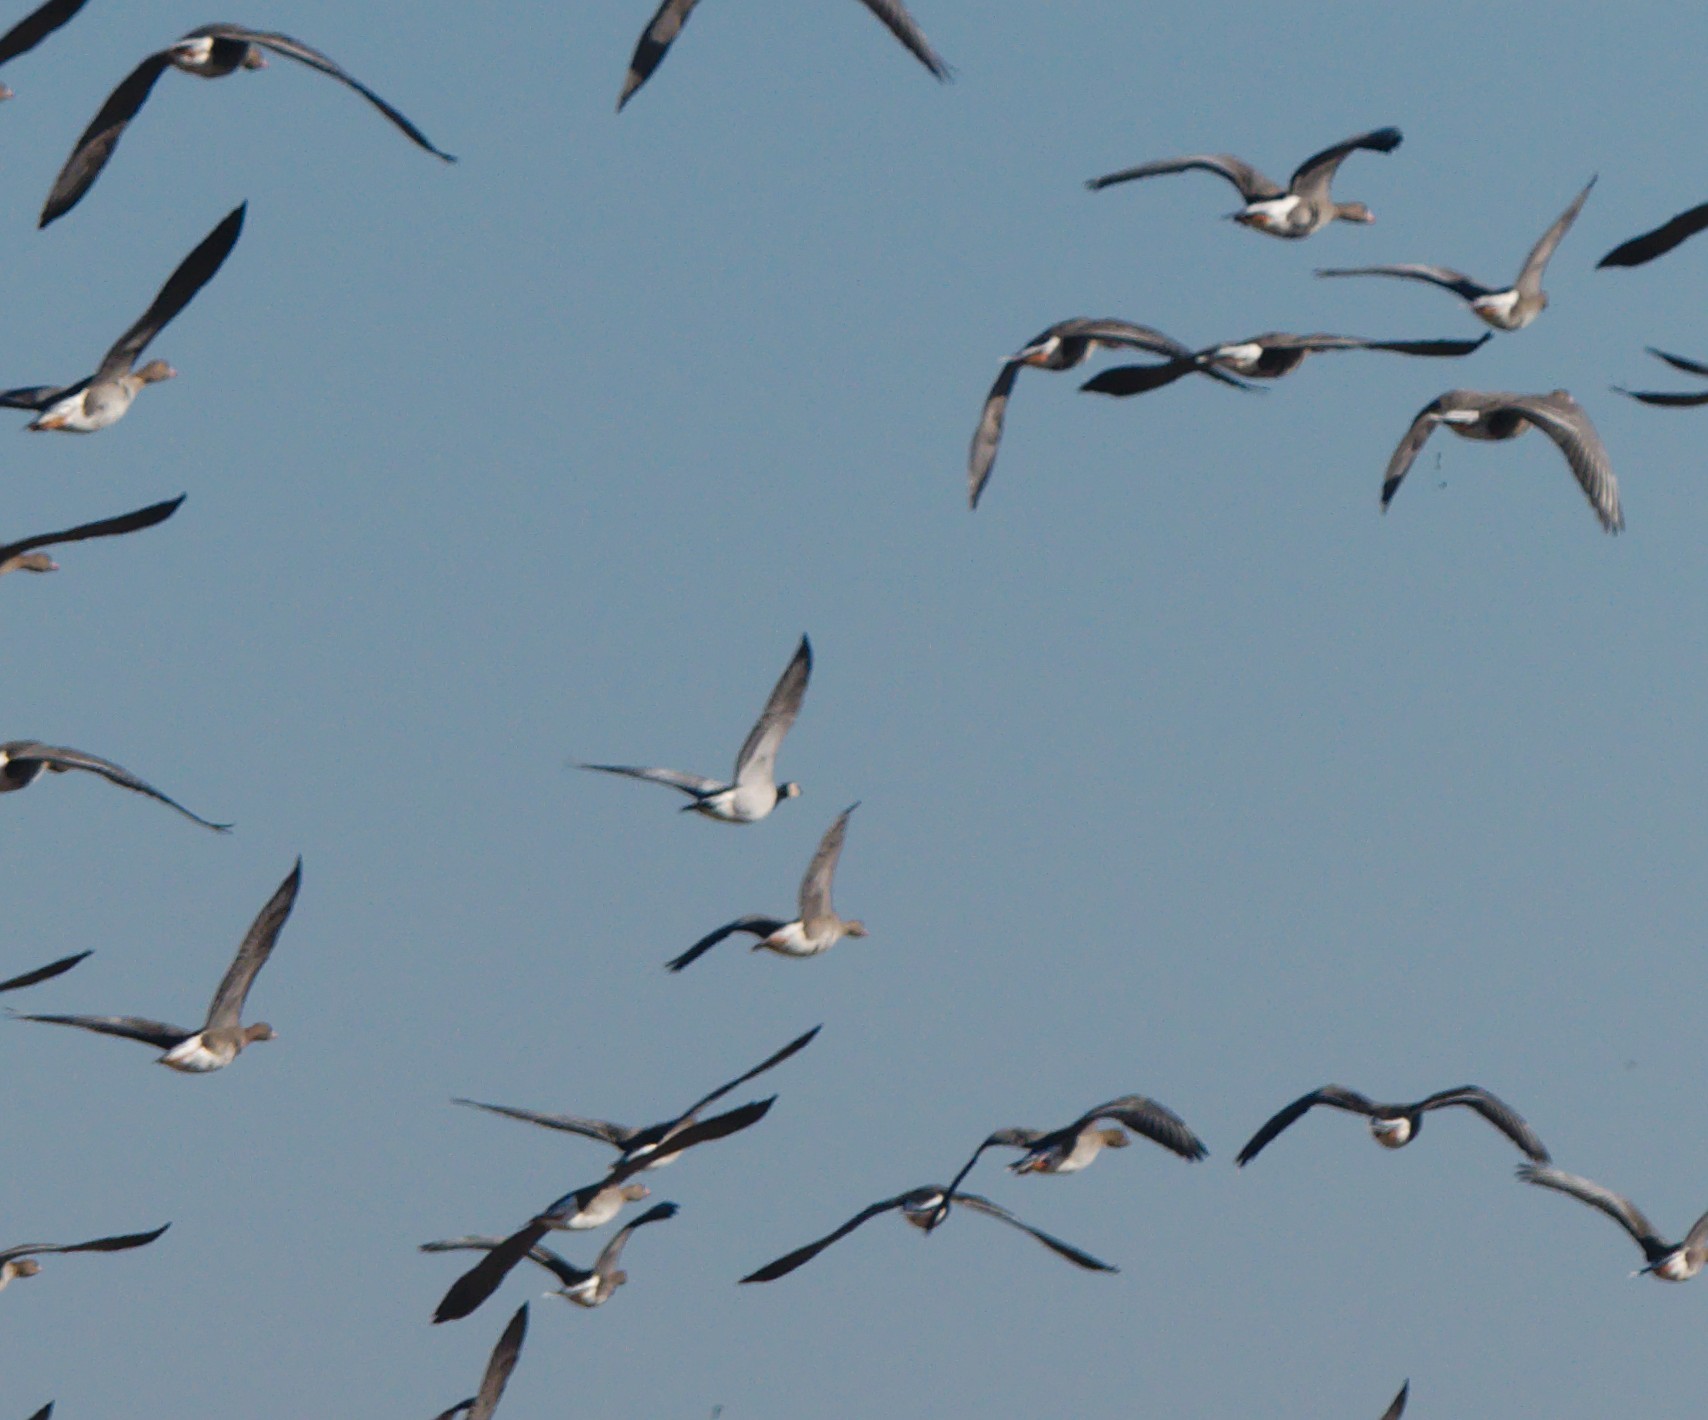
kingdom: Animalia
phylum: Chordata
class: Aves
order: Anseriformes
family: Anatidae
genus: Branta
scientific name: Branta leucopsis
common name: Barnacle goose
